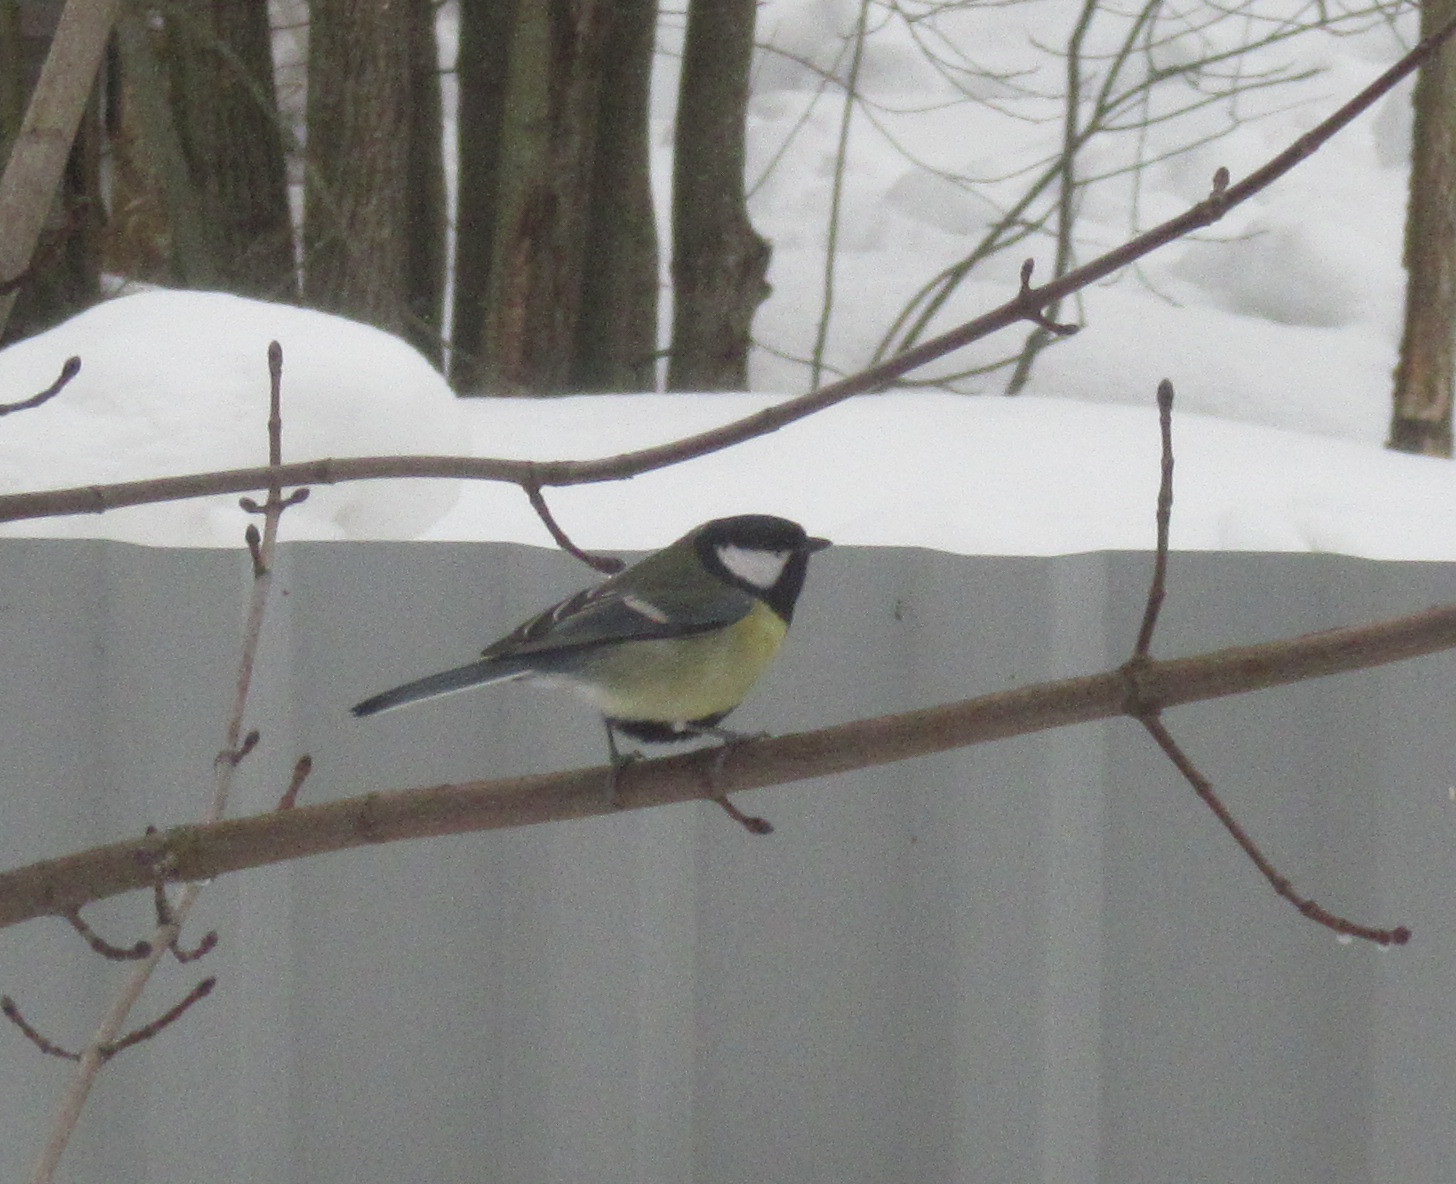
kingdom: Animalia
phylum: Chordata
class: Aves
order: Passeriformes
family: Paridae
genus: Parus
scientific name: Parus major
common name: Great tit
